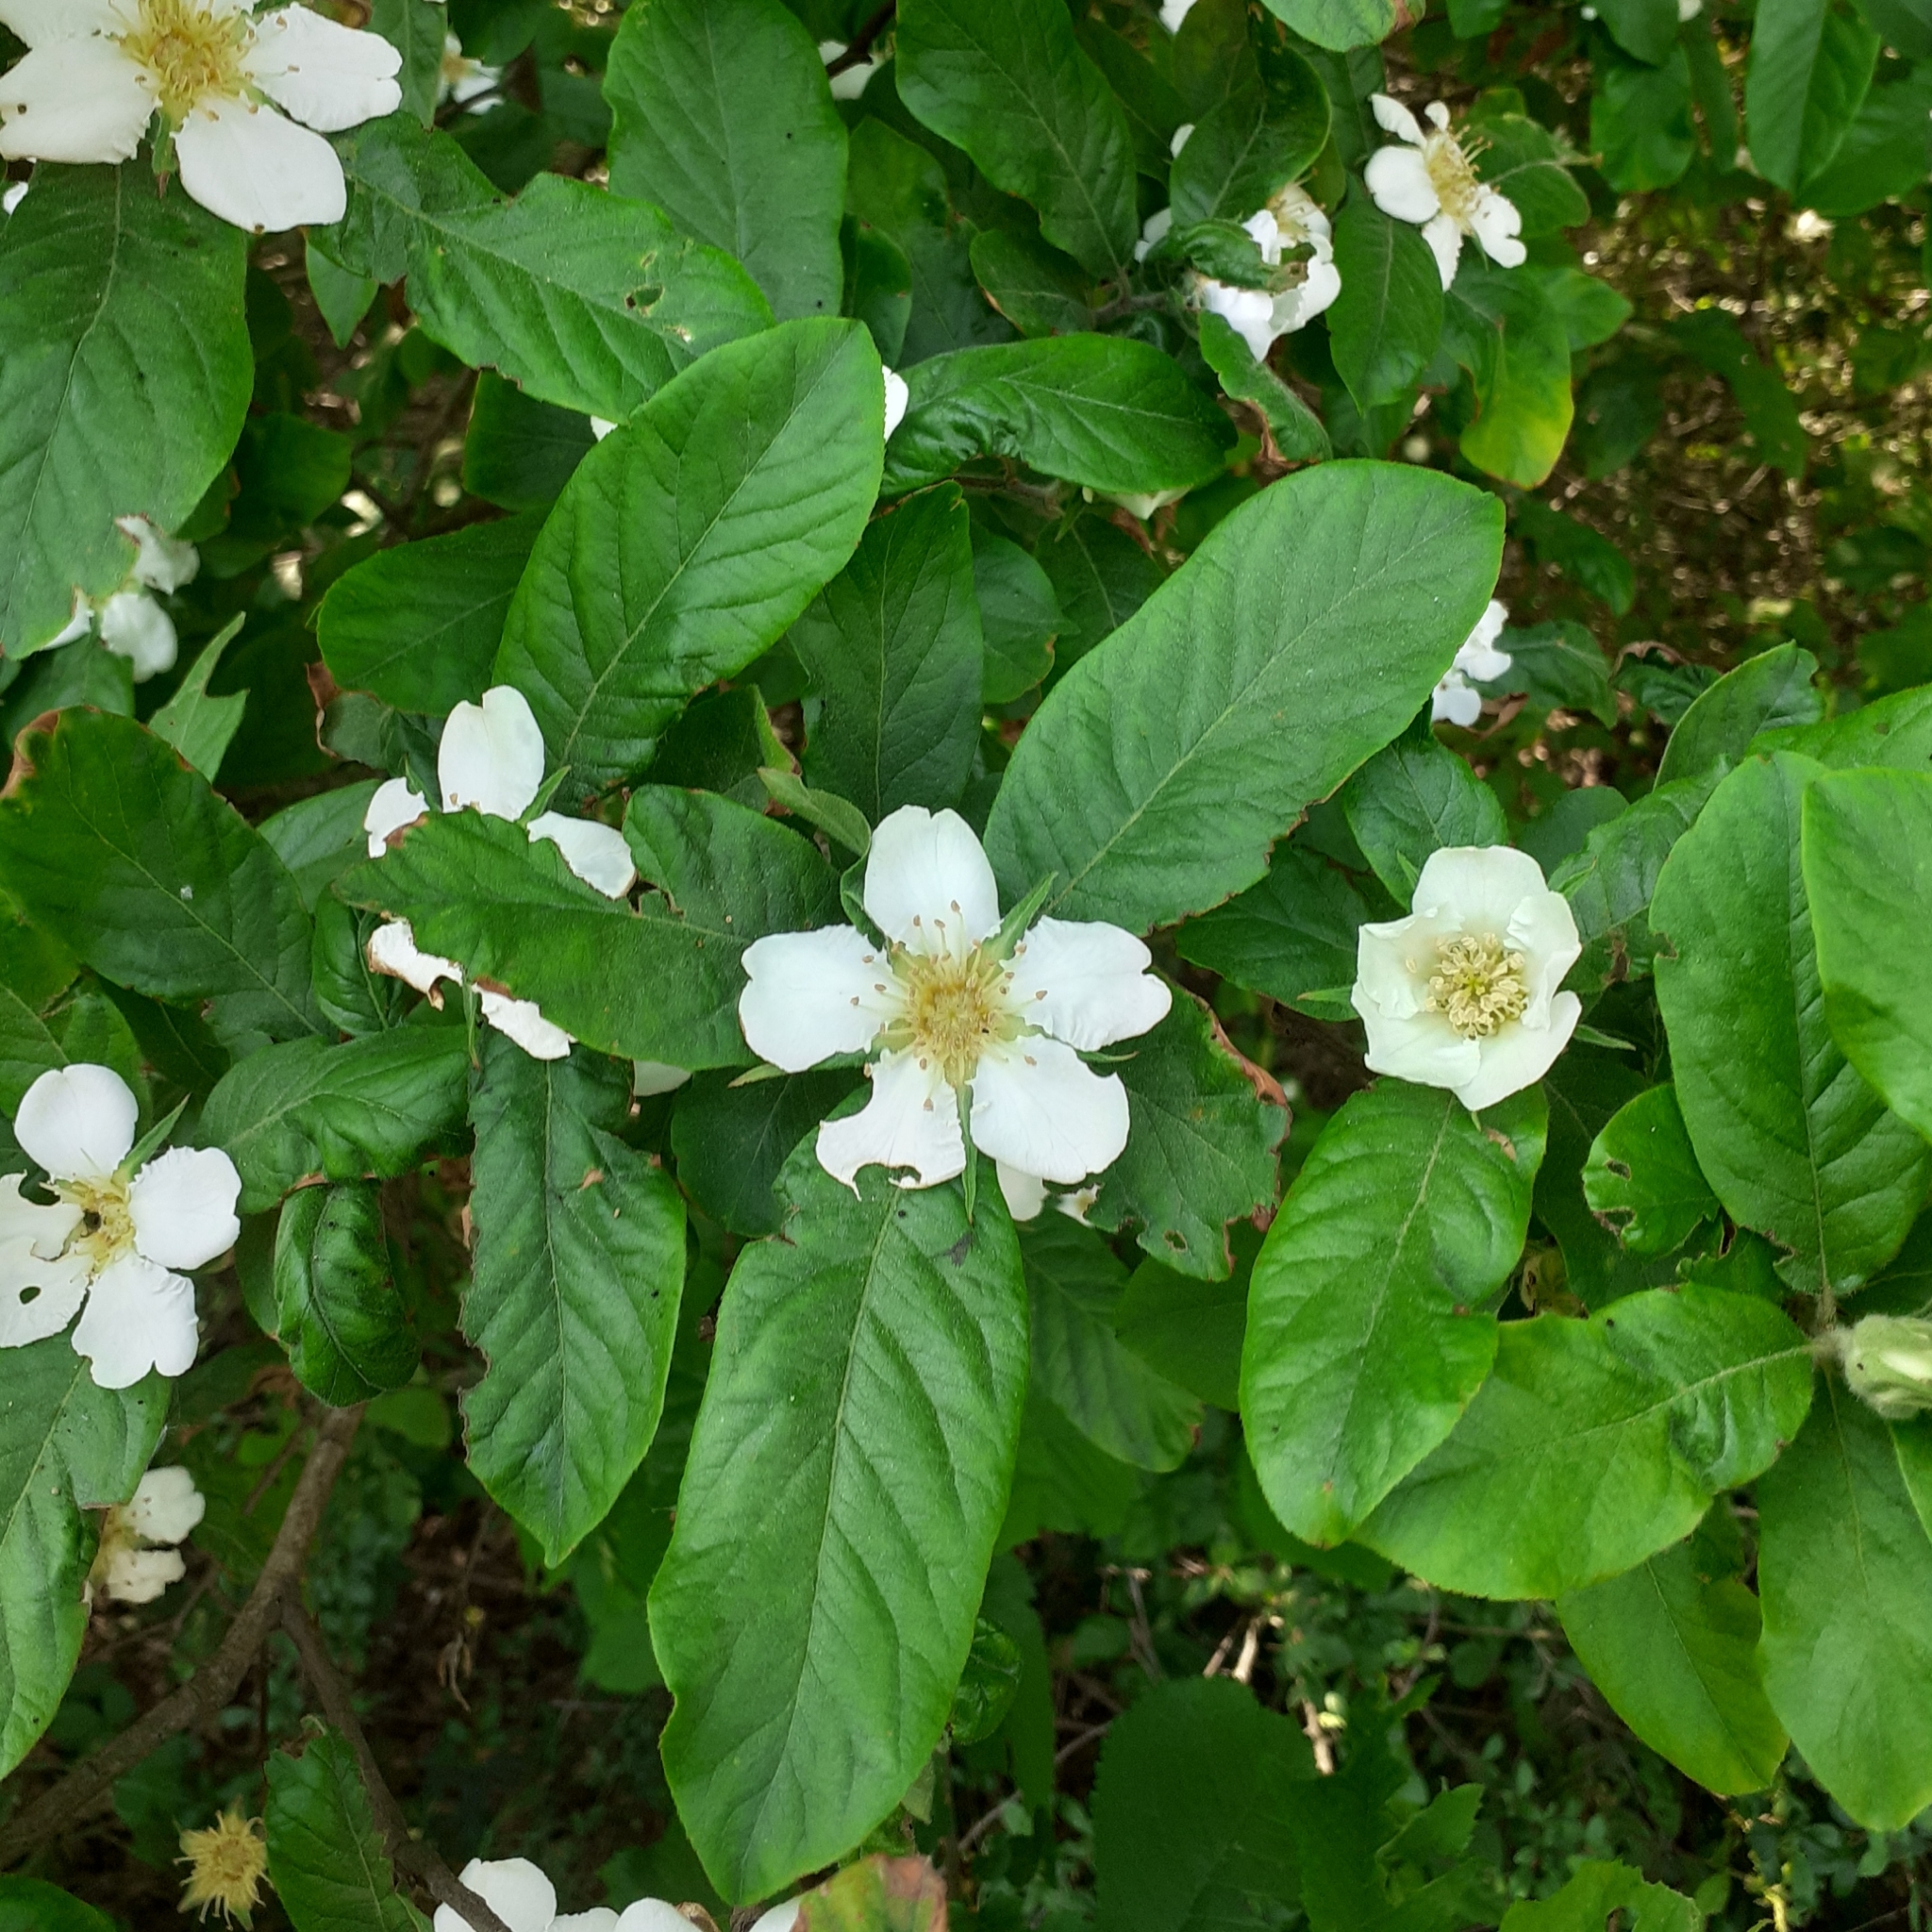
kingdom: Plantae
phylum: Tracheophyta
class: Magnoliopsida
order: Rosales
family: Rosaceae
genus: Mespilus
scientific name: Mespilus germanica
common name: Medlar
